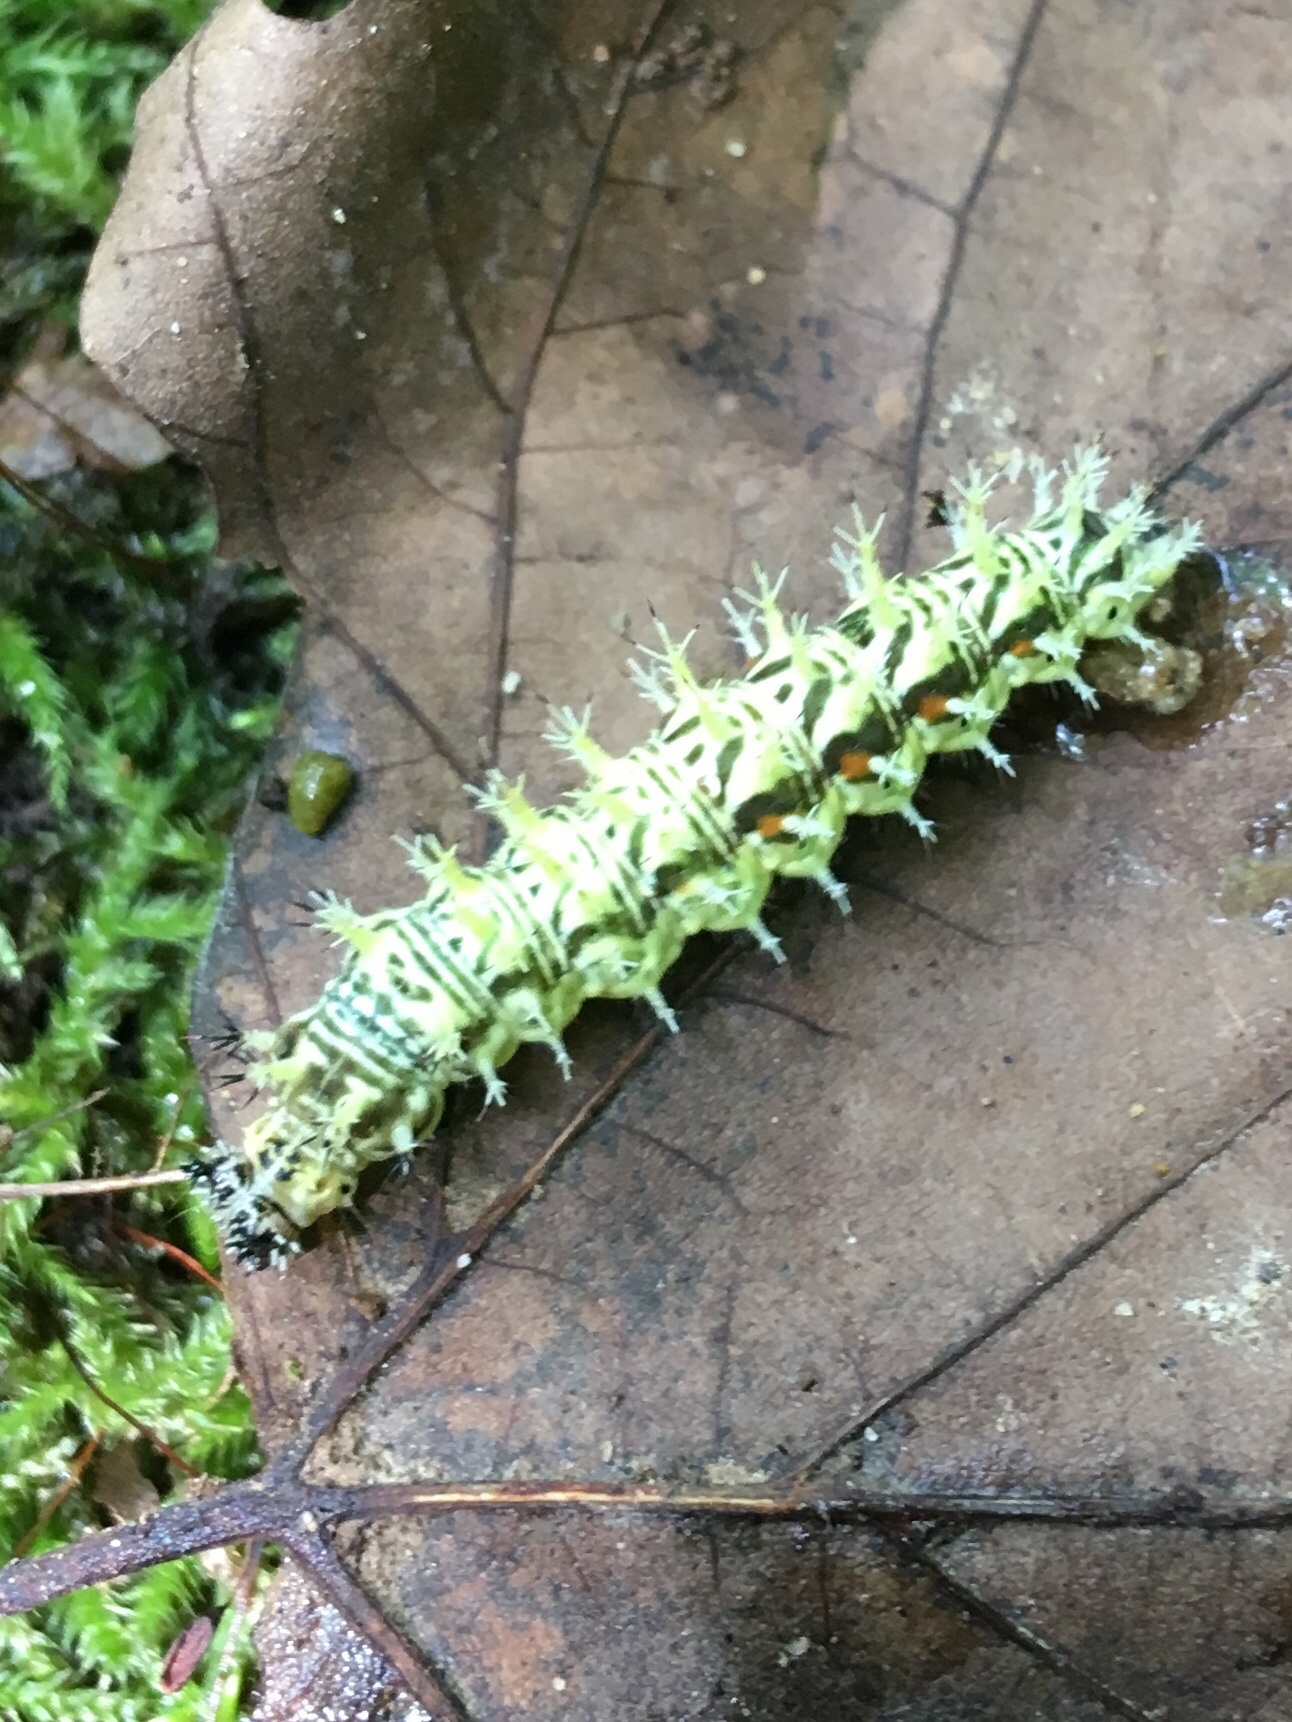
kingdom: Animalia
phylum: Arthropoda
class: Insecta
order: Lepidoptera
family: Nymphalidae
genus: Polygonia
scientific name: Polygonia comma
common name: Eastern comma
